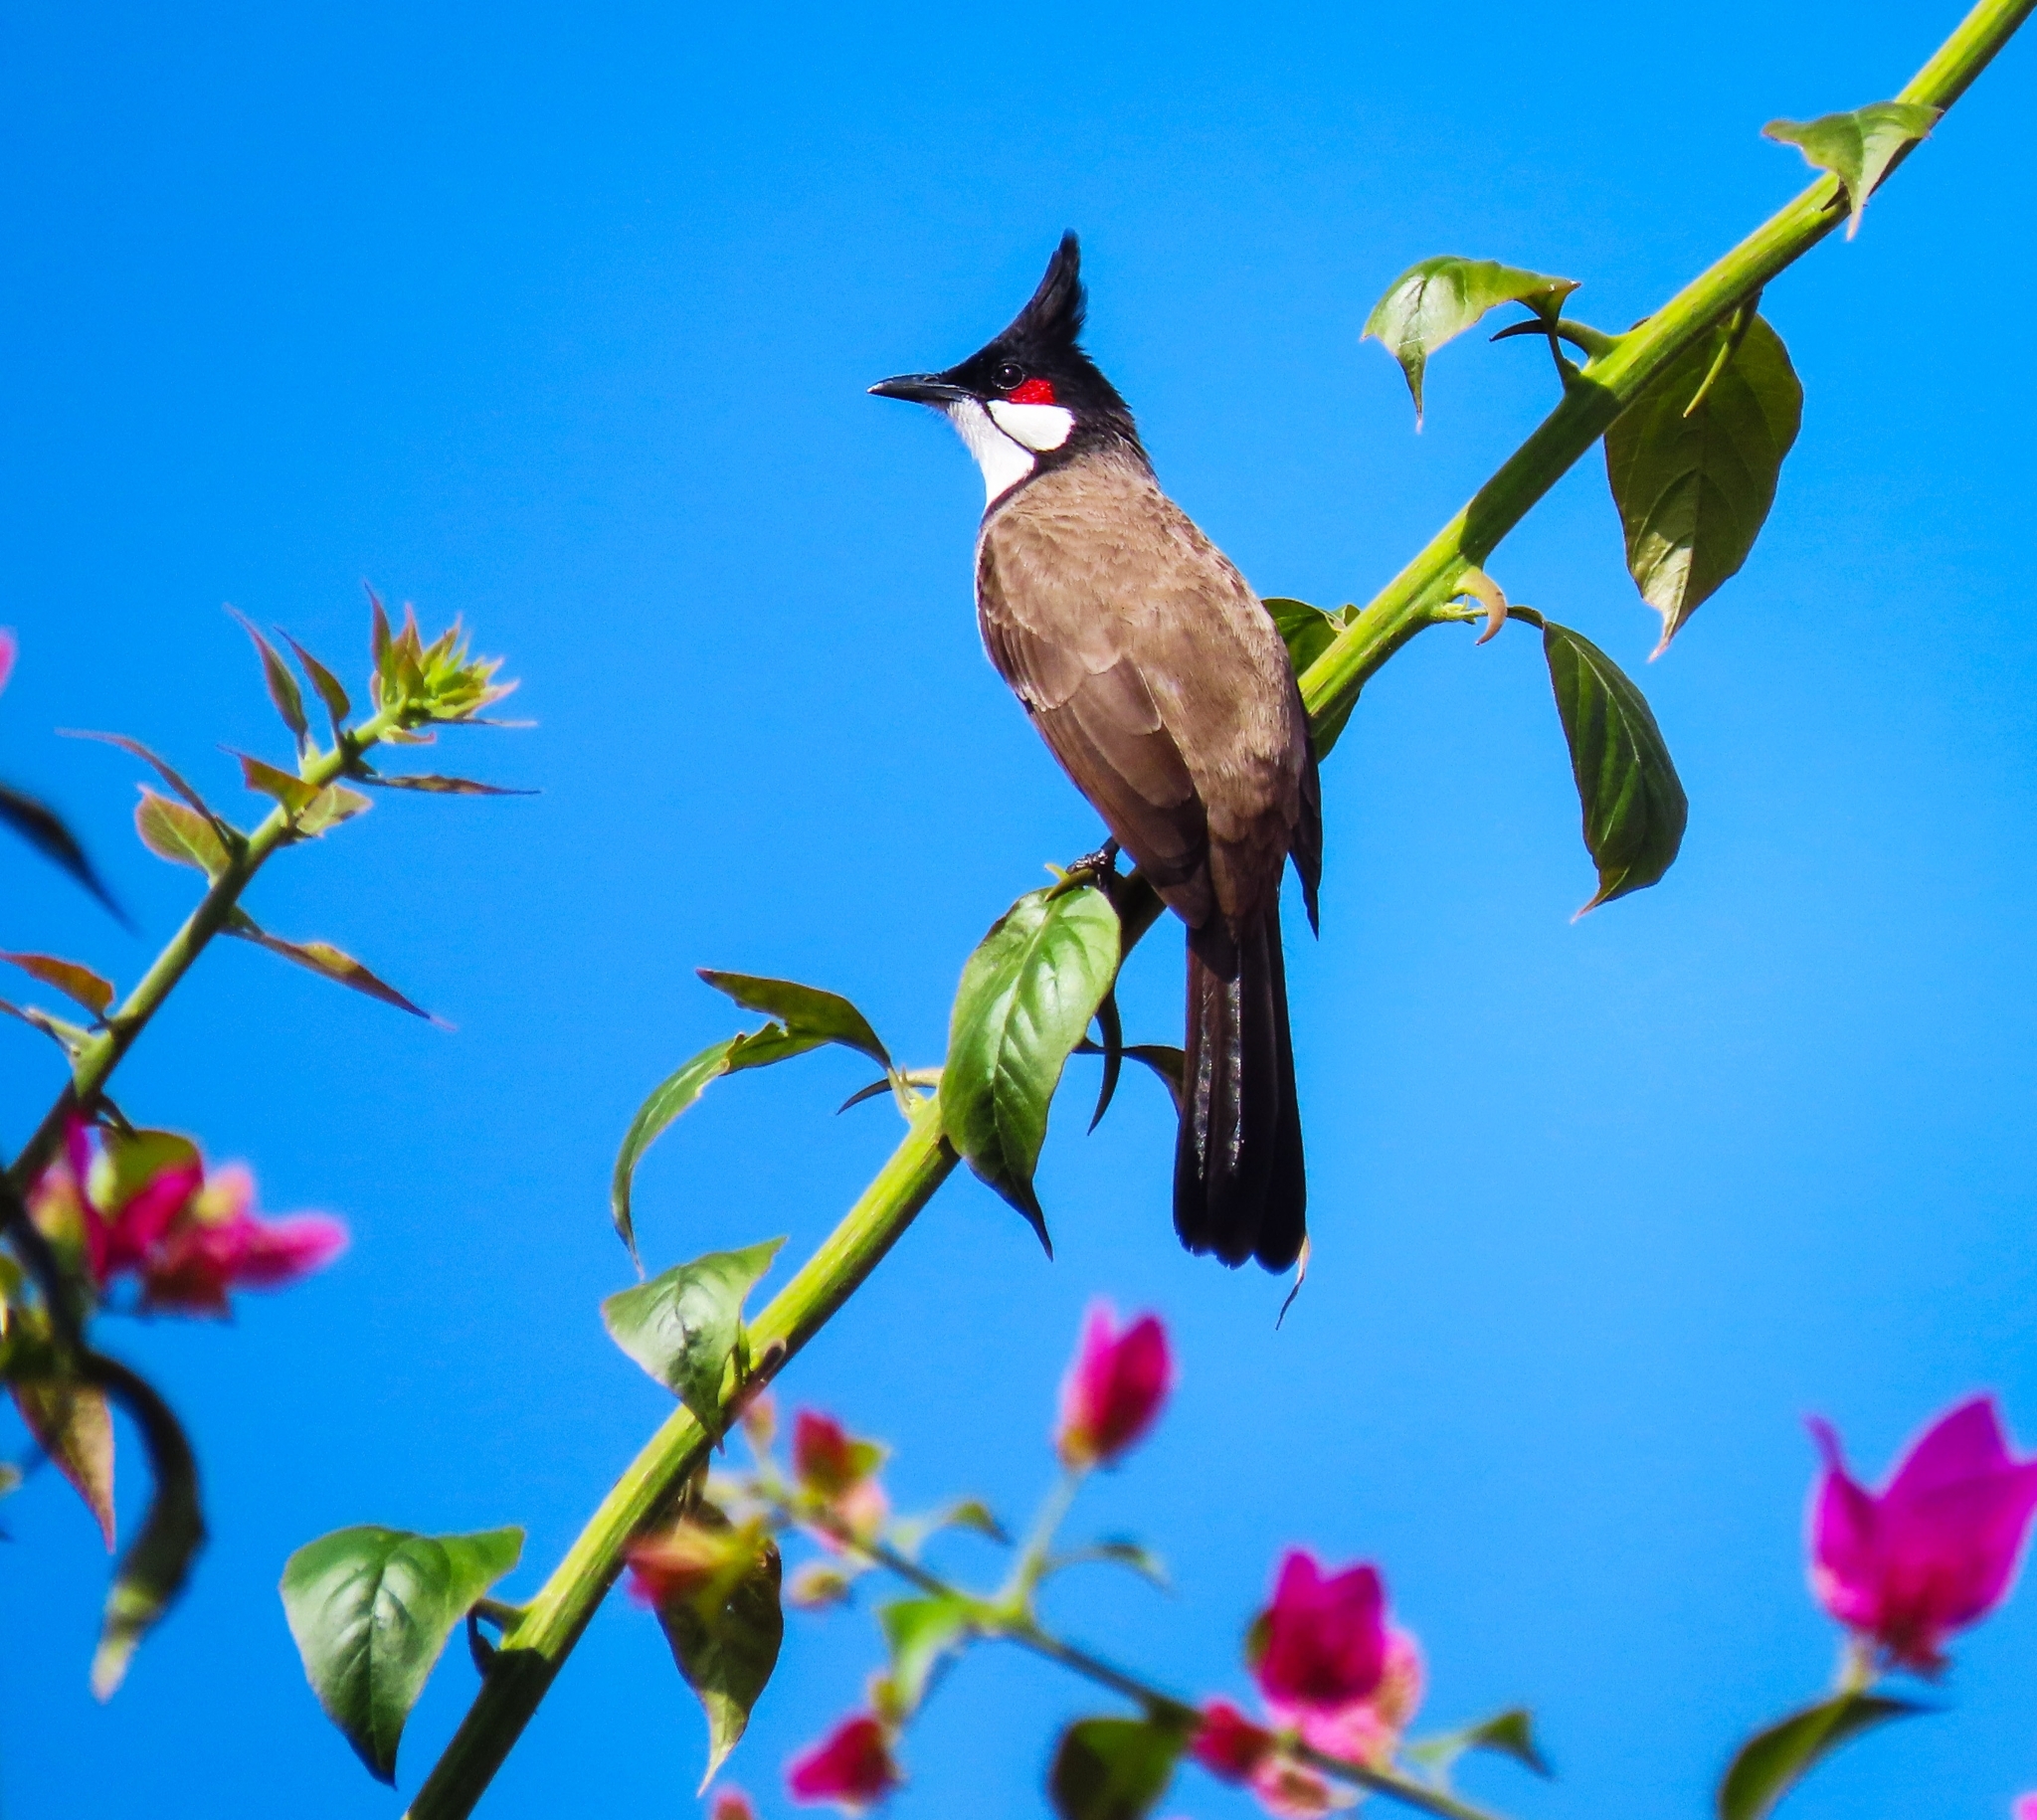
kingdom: Animalia
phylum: Chordata
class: Aves
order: Passeriformes
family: Pycnonotidae
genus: Pycnonotus
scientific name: Pycnonotus jocosus
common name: Red-whiskered bulbul
